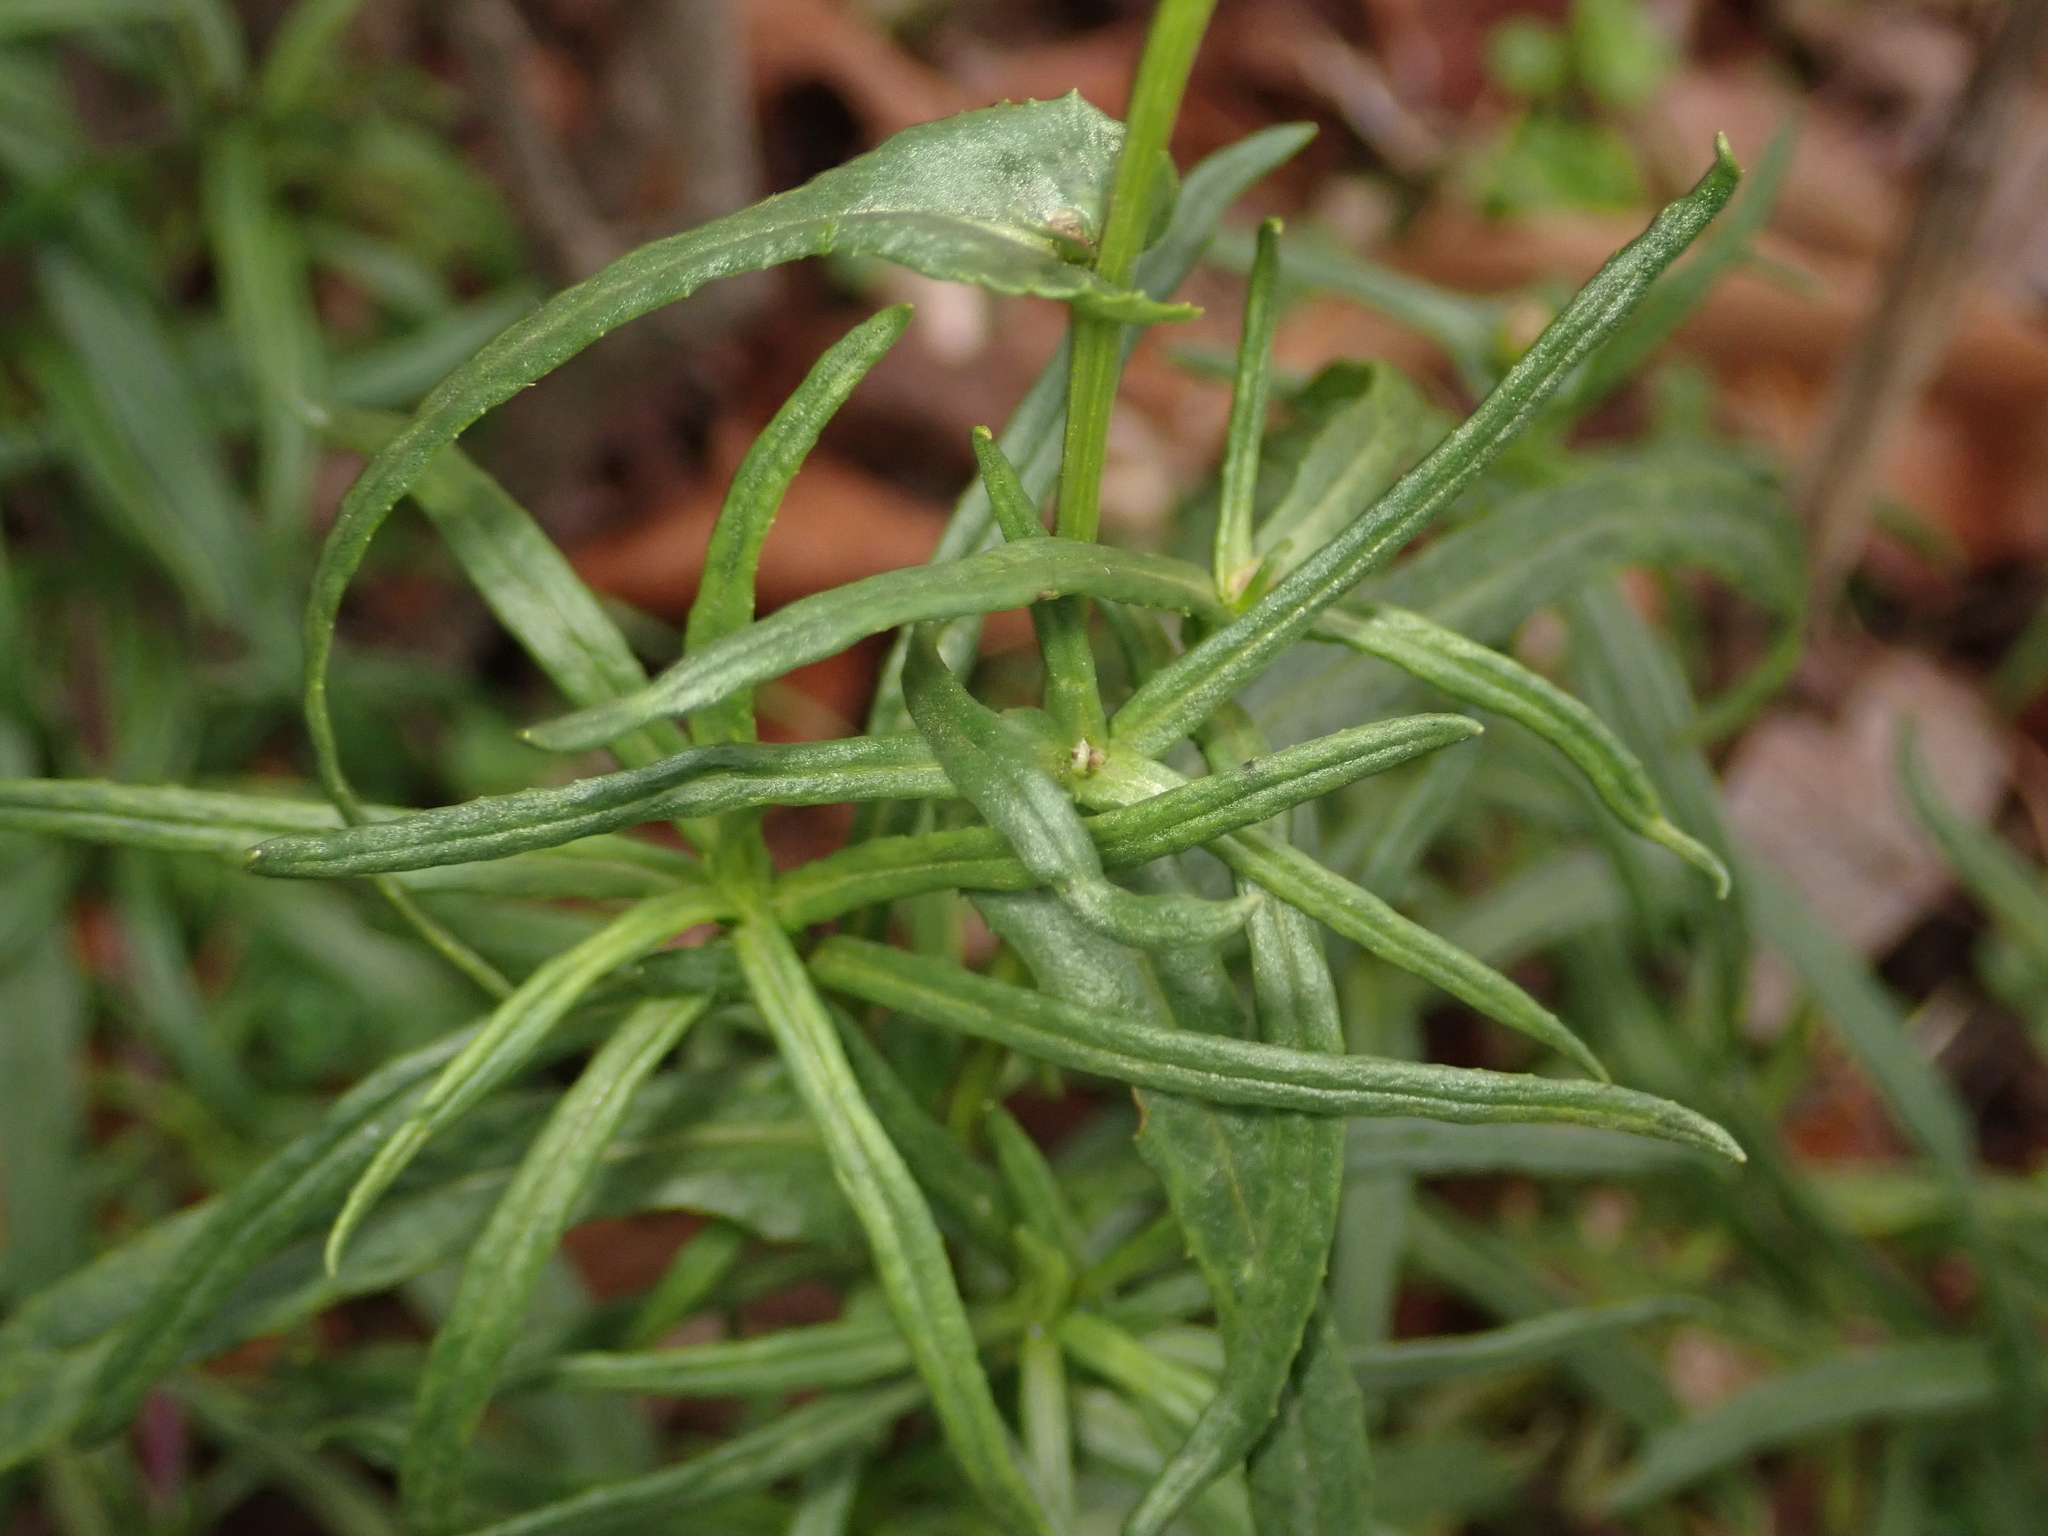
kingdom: Plantae
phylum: Tracheophyta
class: Magnoliopsida
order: Asterales
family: Asteraceae
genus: Senecio
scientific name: Senecio inaequidens
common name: Narrow-leaved ragwort
